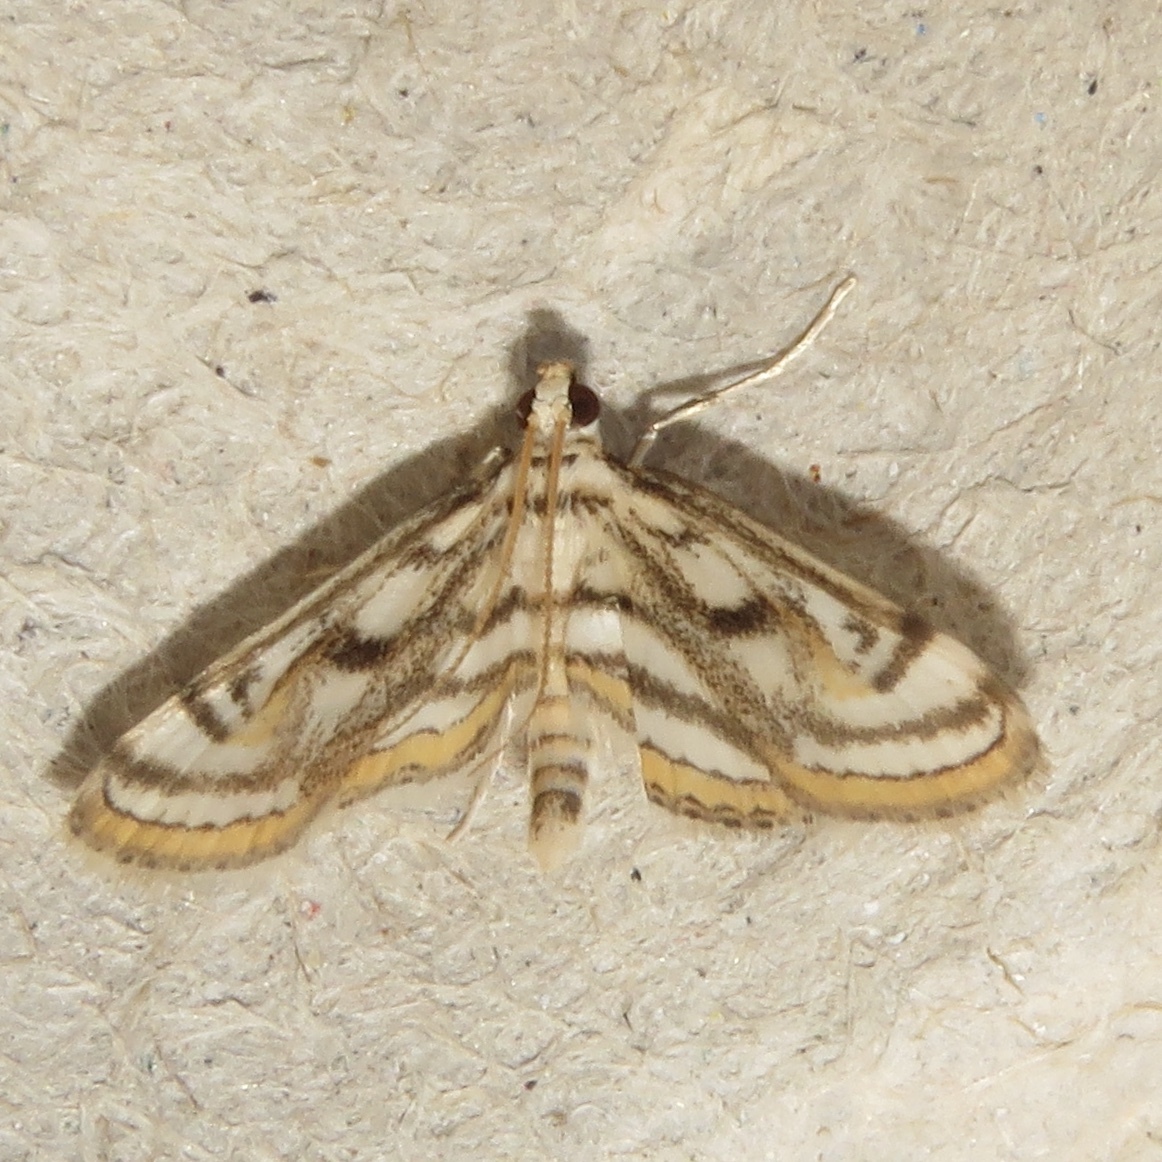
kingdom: Animalia
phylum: Arthropoda
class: Insecta
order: Lepidoptera
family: Crambidae
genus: Parapoynx
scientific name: Parapoynx badiusalis
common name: Chestnut-marked pondweed moth
